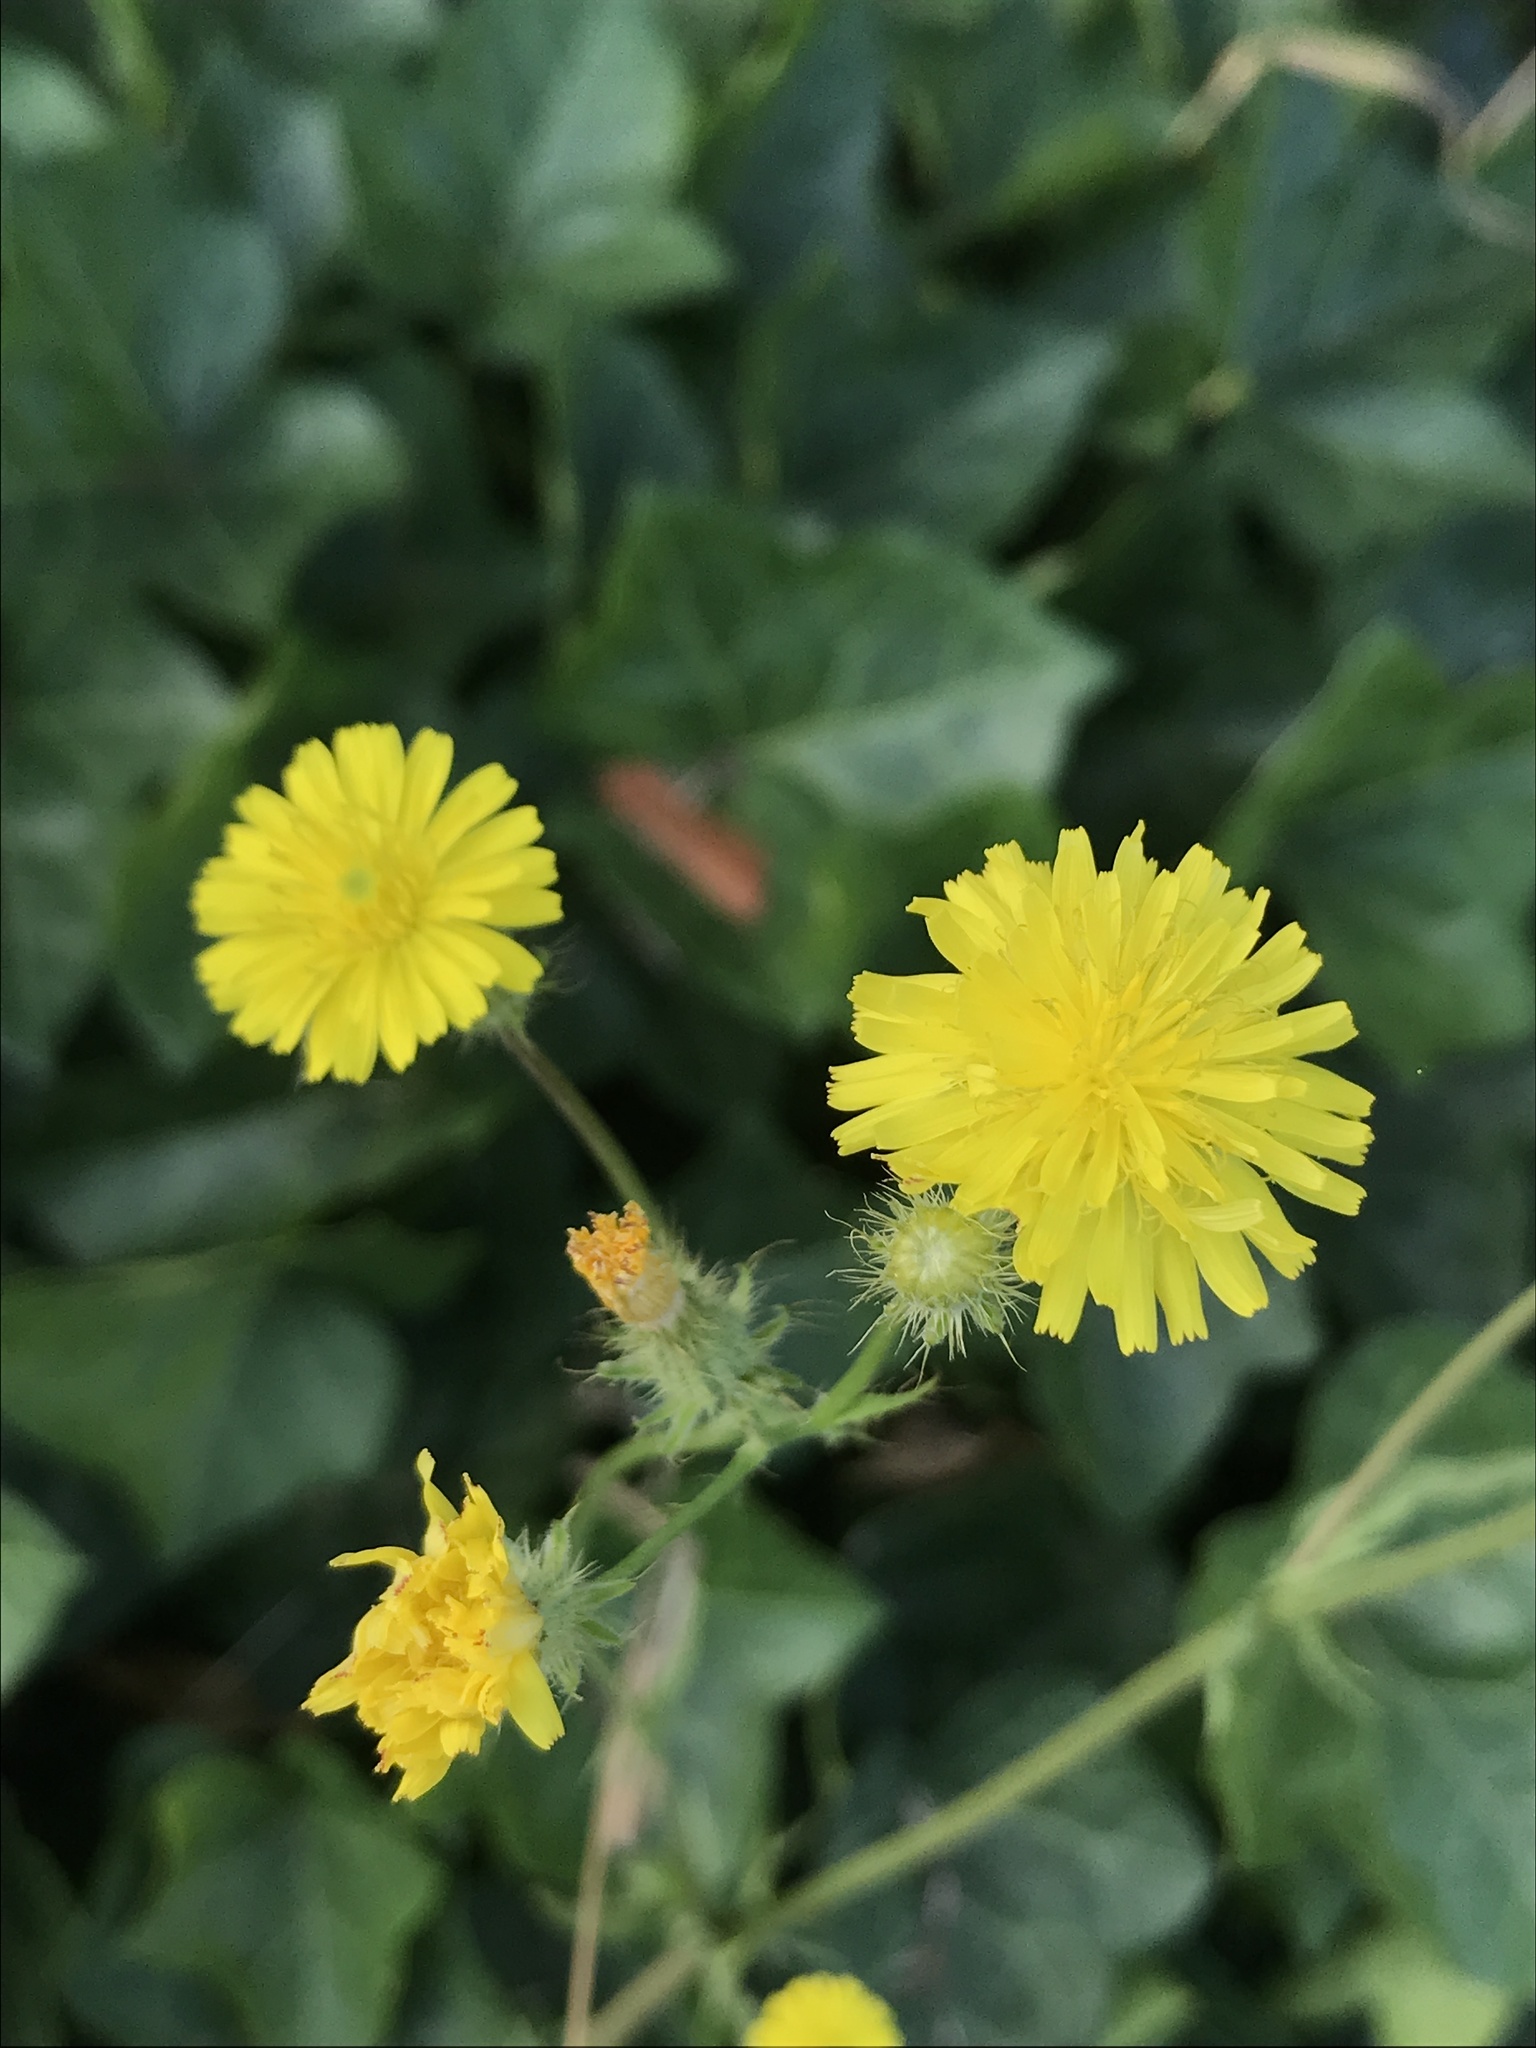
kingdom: Plantae
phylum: Tracheophyta
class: Magnoliopsida
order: Asterales
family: Asteraceae
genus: Crepis
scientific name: Crepis setosa
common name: Bristly hawk's-beard
